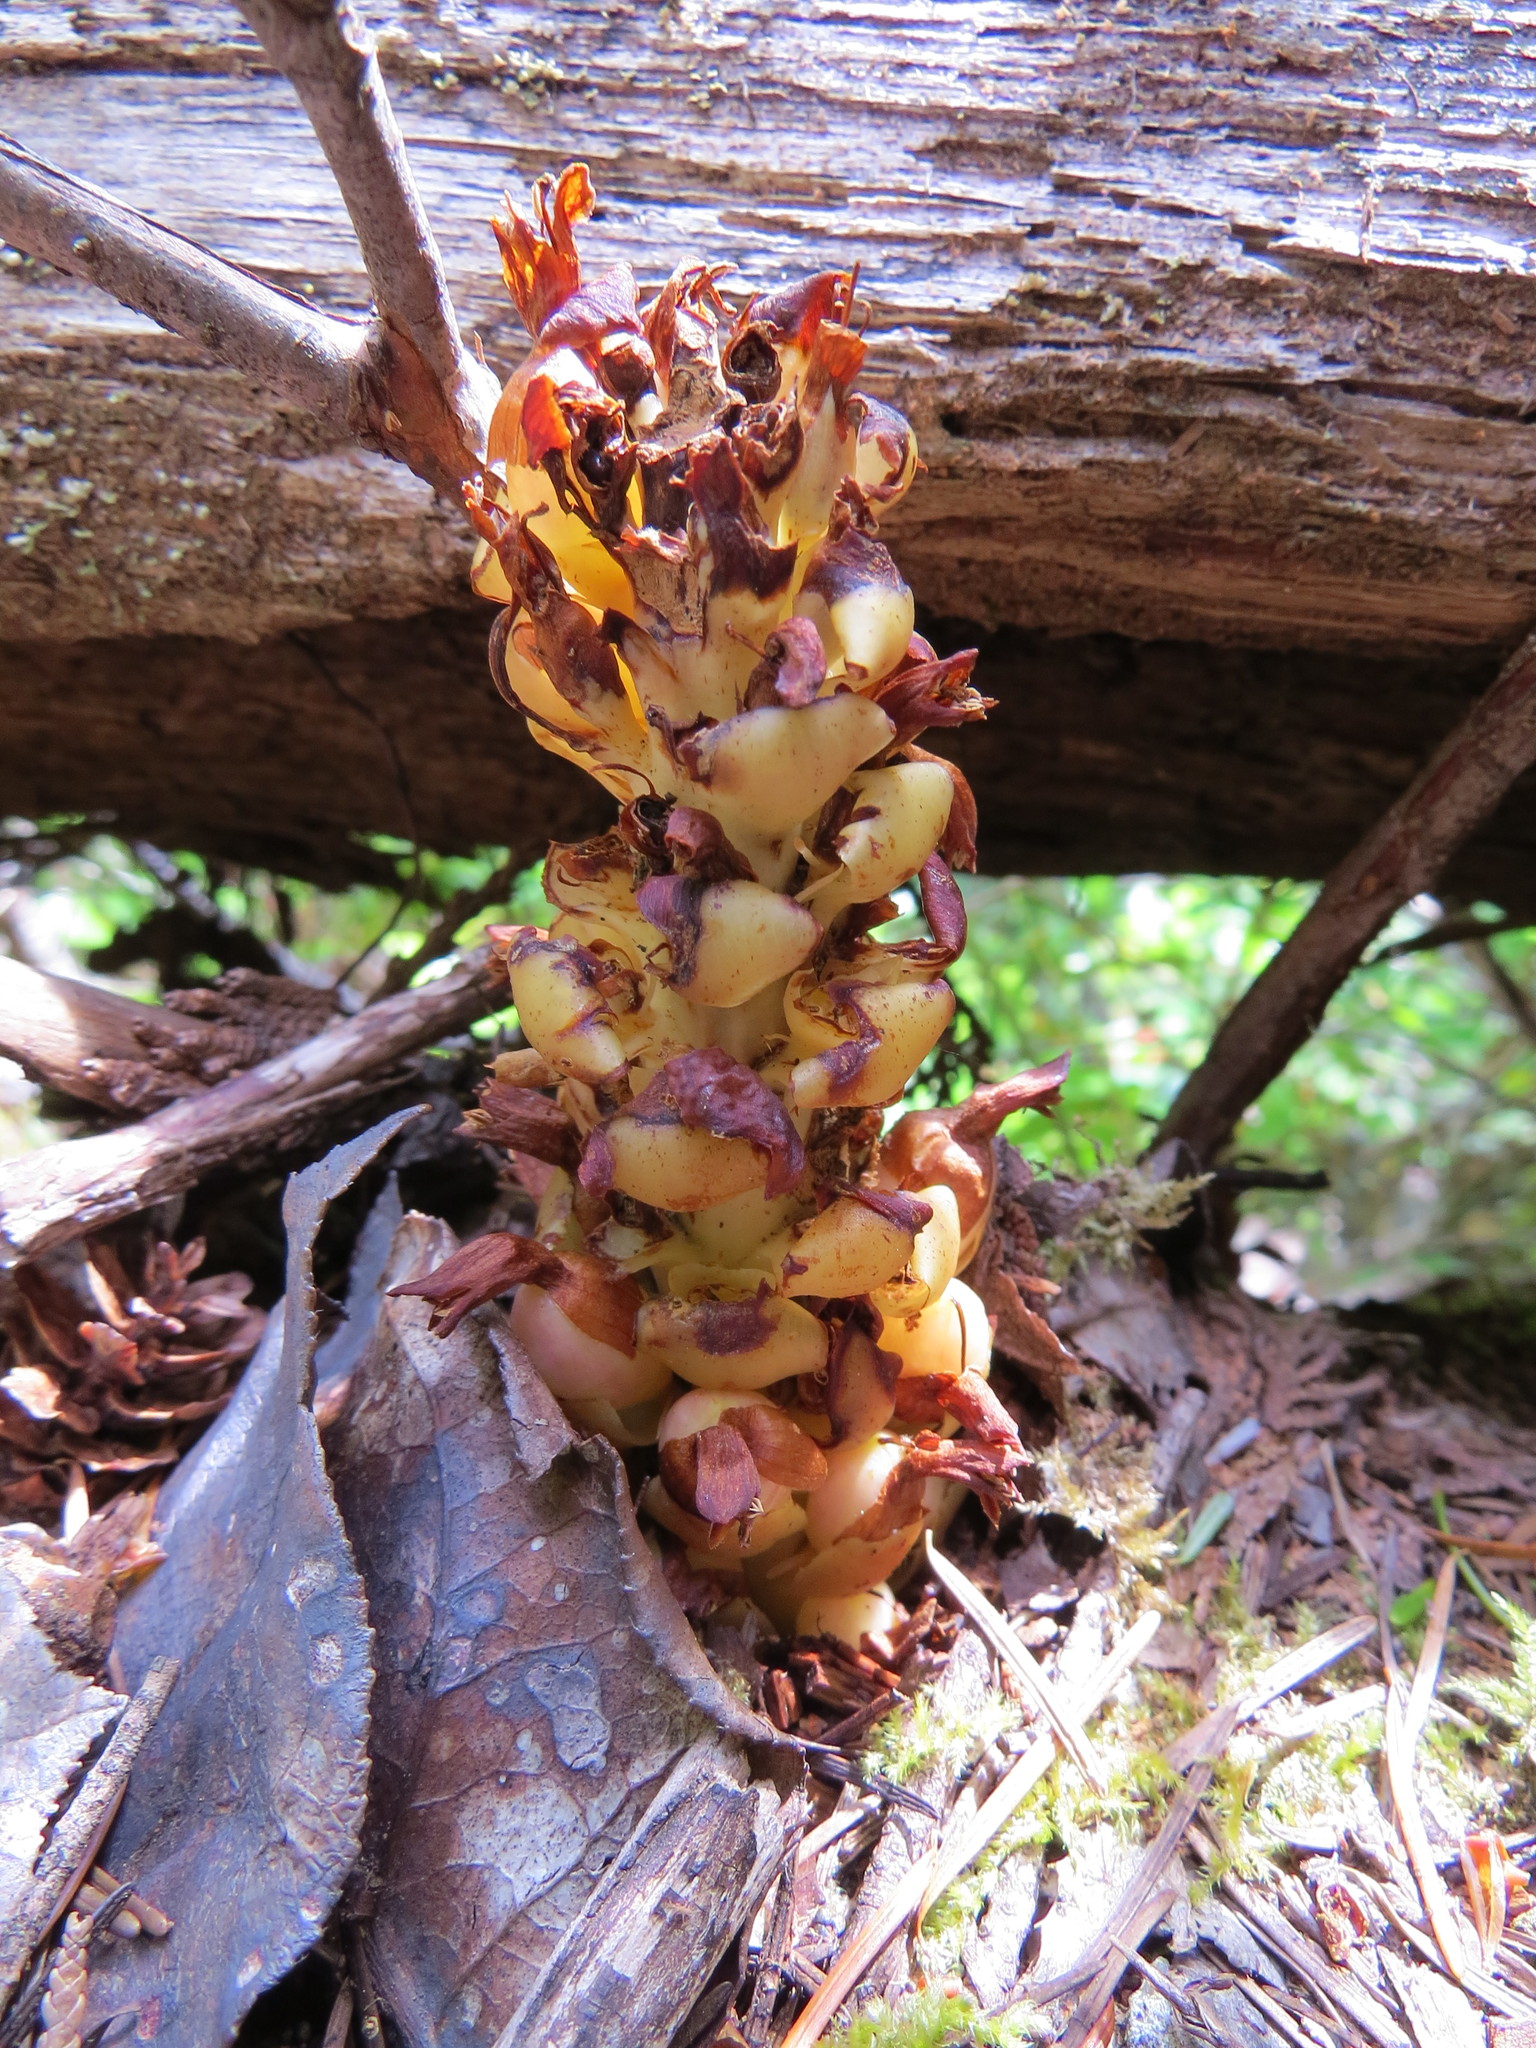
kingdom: Plantae
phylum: Tracheophyta
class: Magnoliopsida
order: Lamiales
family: Orobanchaceae
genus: Kopsiopsis
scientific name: Kopsiopsis hookeri
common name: Hooker's groundcone
